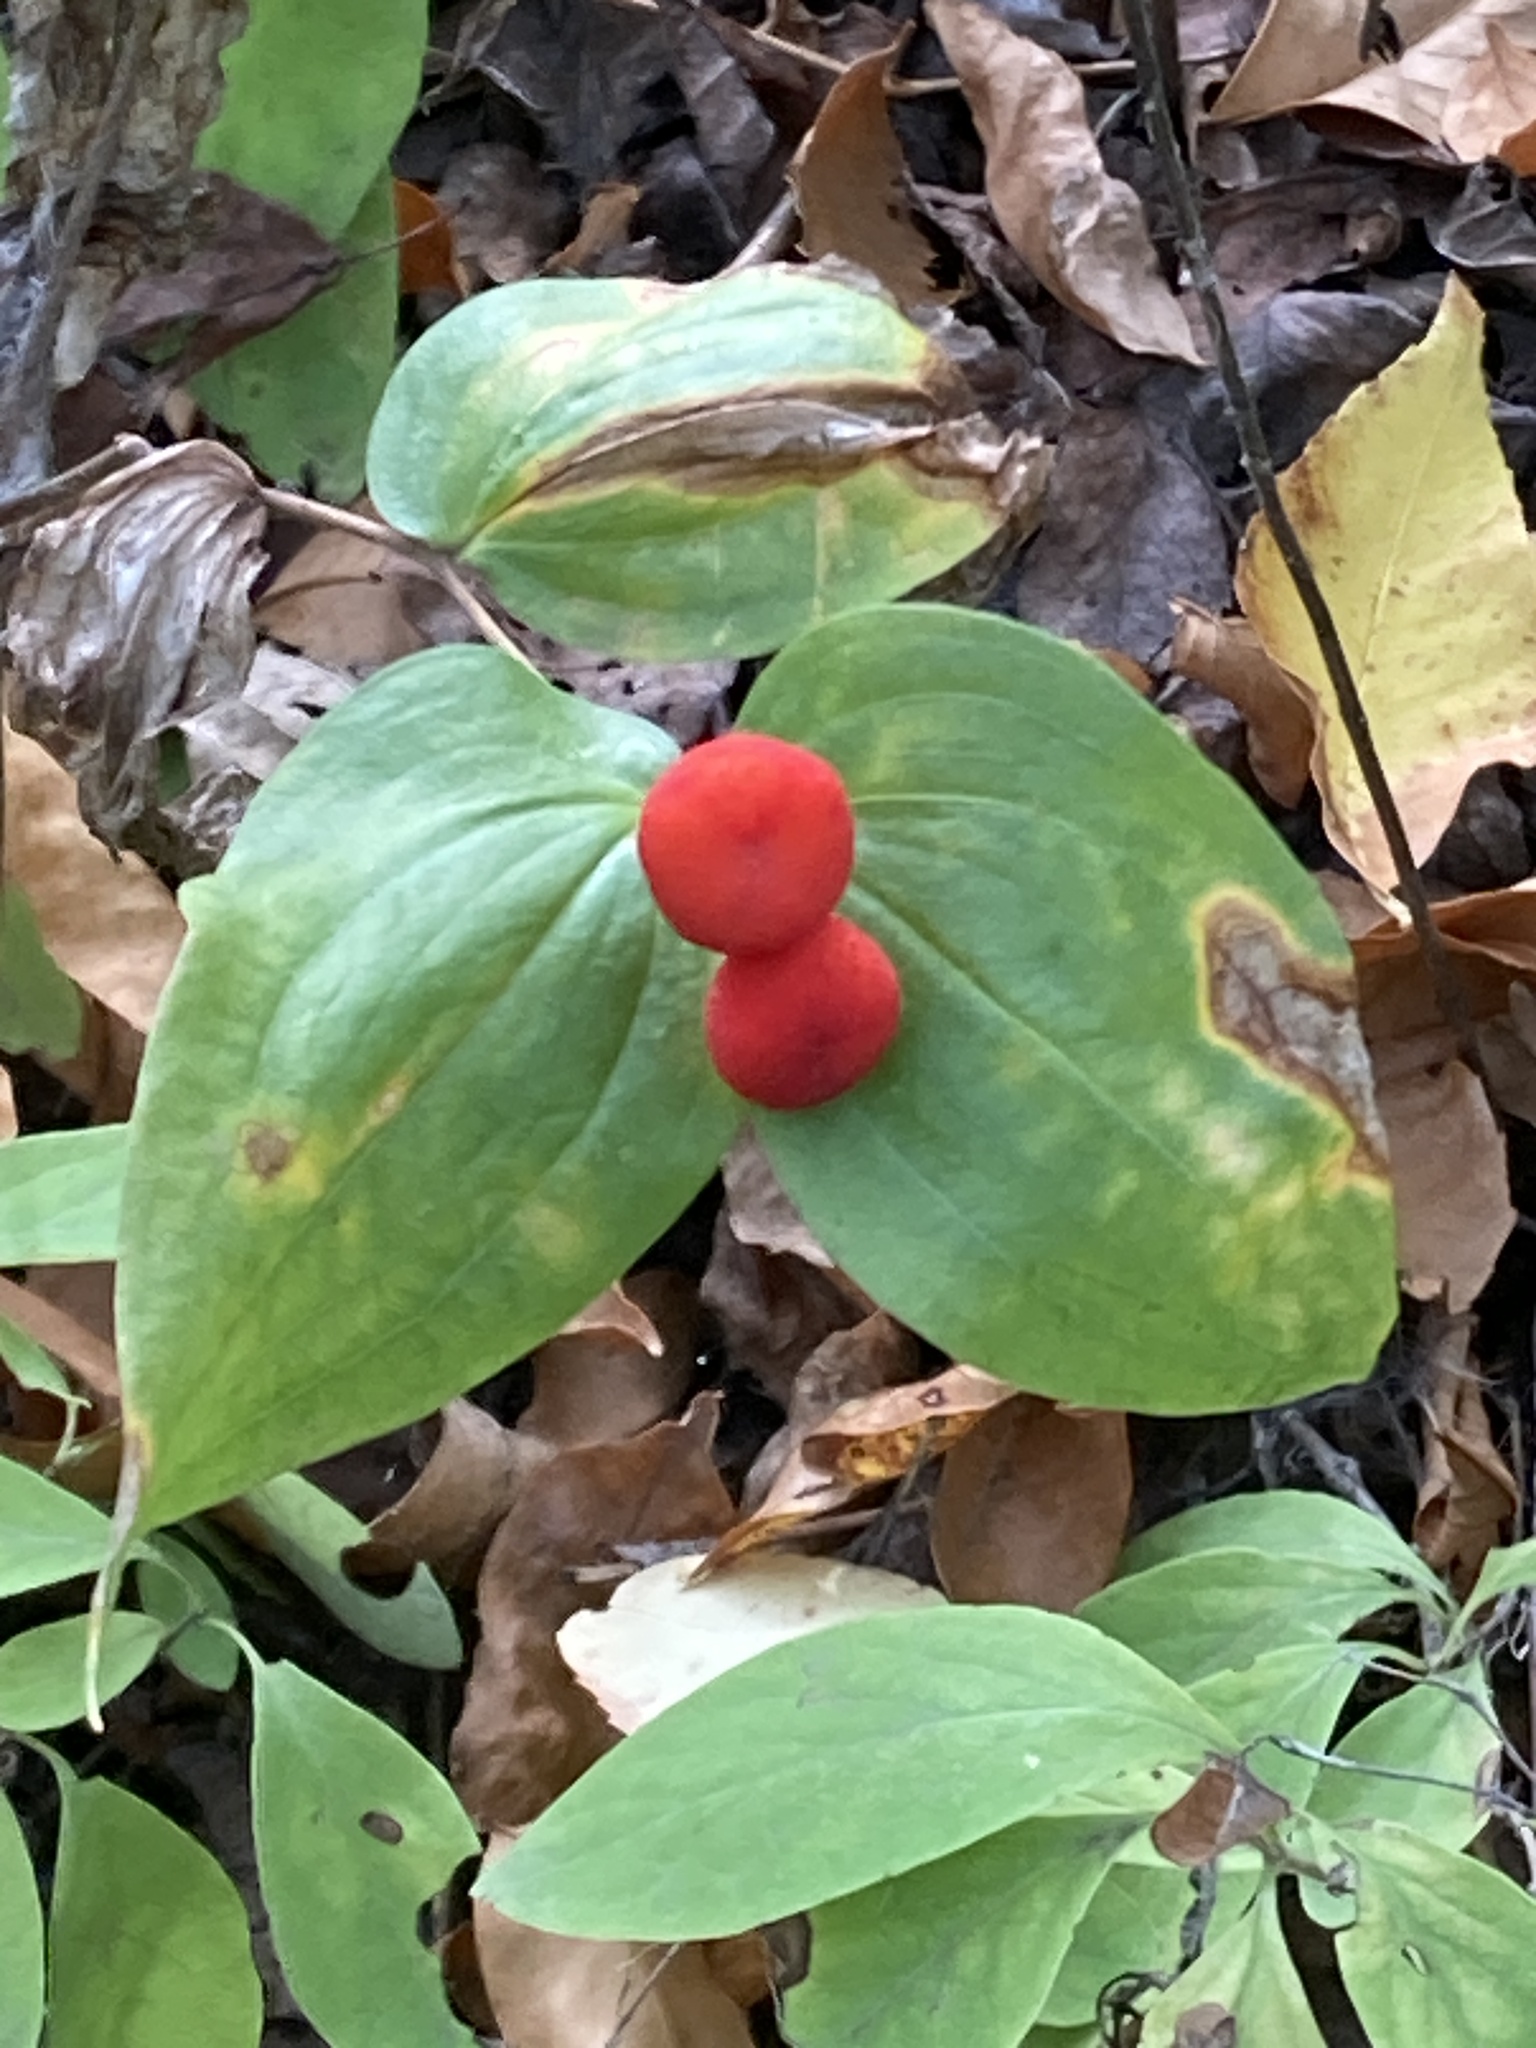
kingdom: Plantae
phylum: Tracheophyta
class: Liliopsida
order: Liliales
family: Liliaceae
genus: Prosartes
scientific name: Prosartes trachycarpa
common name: Rough-fruit fairy-bells
